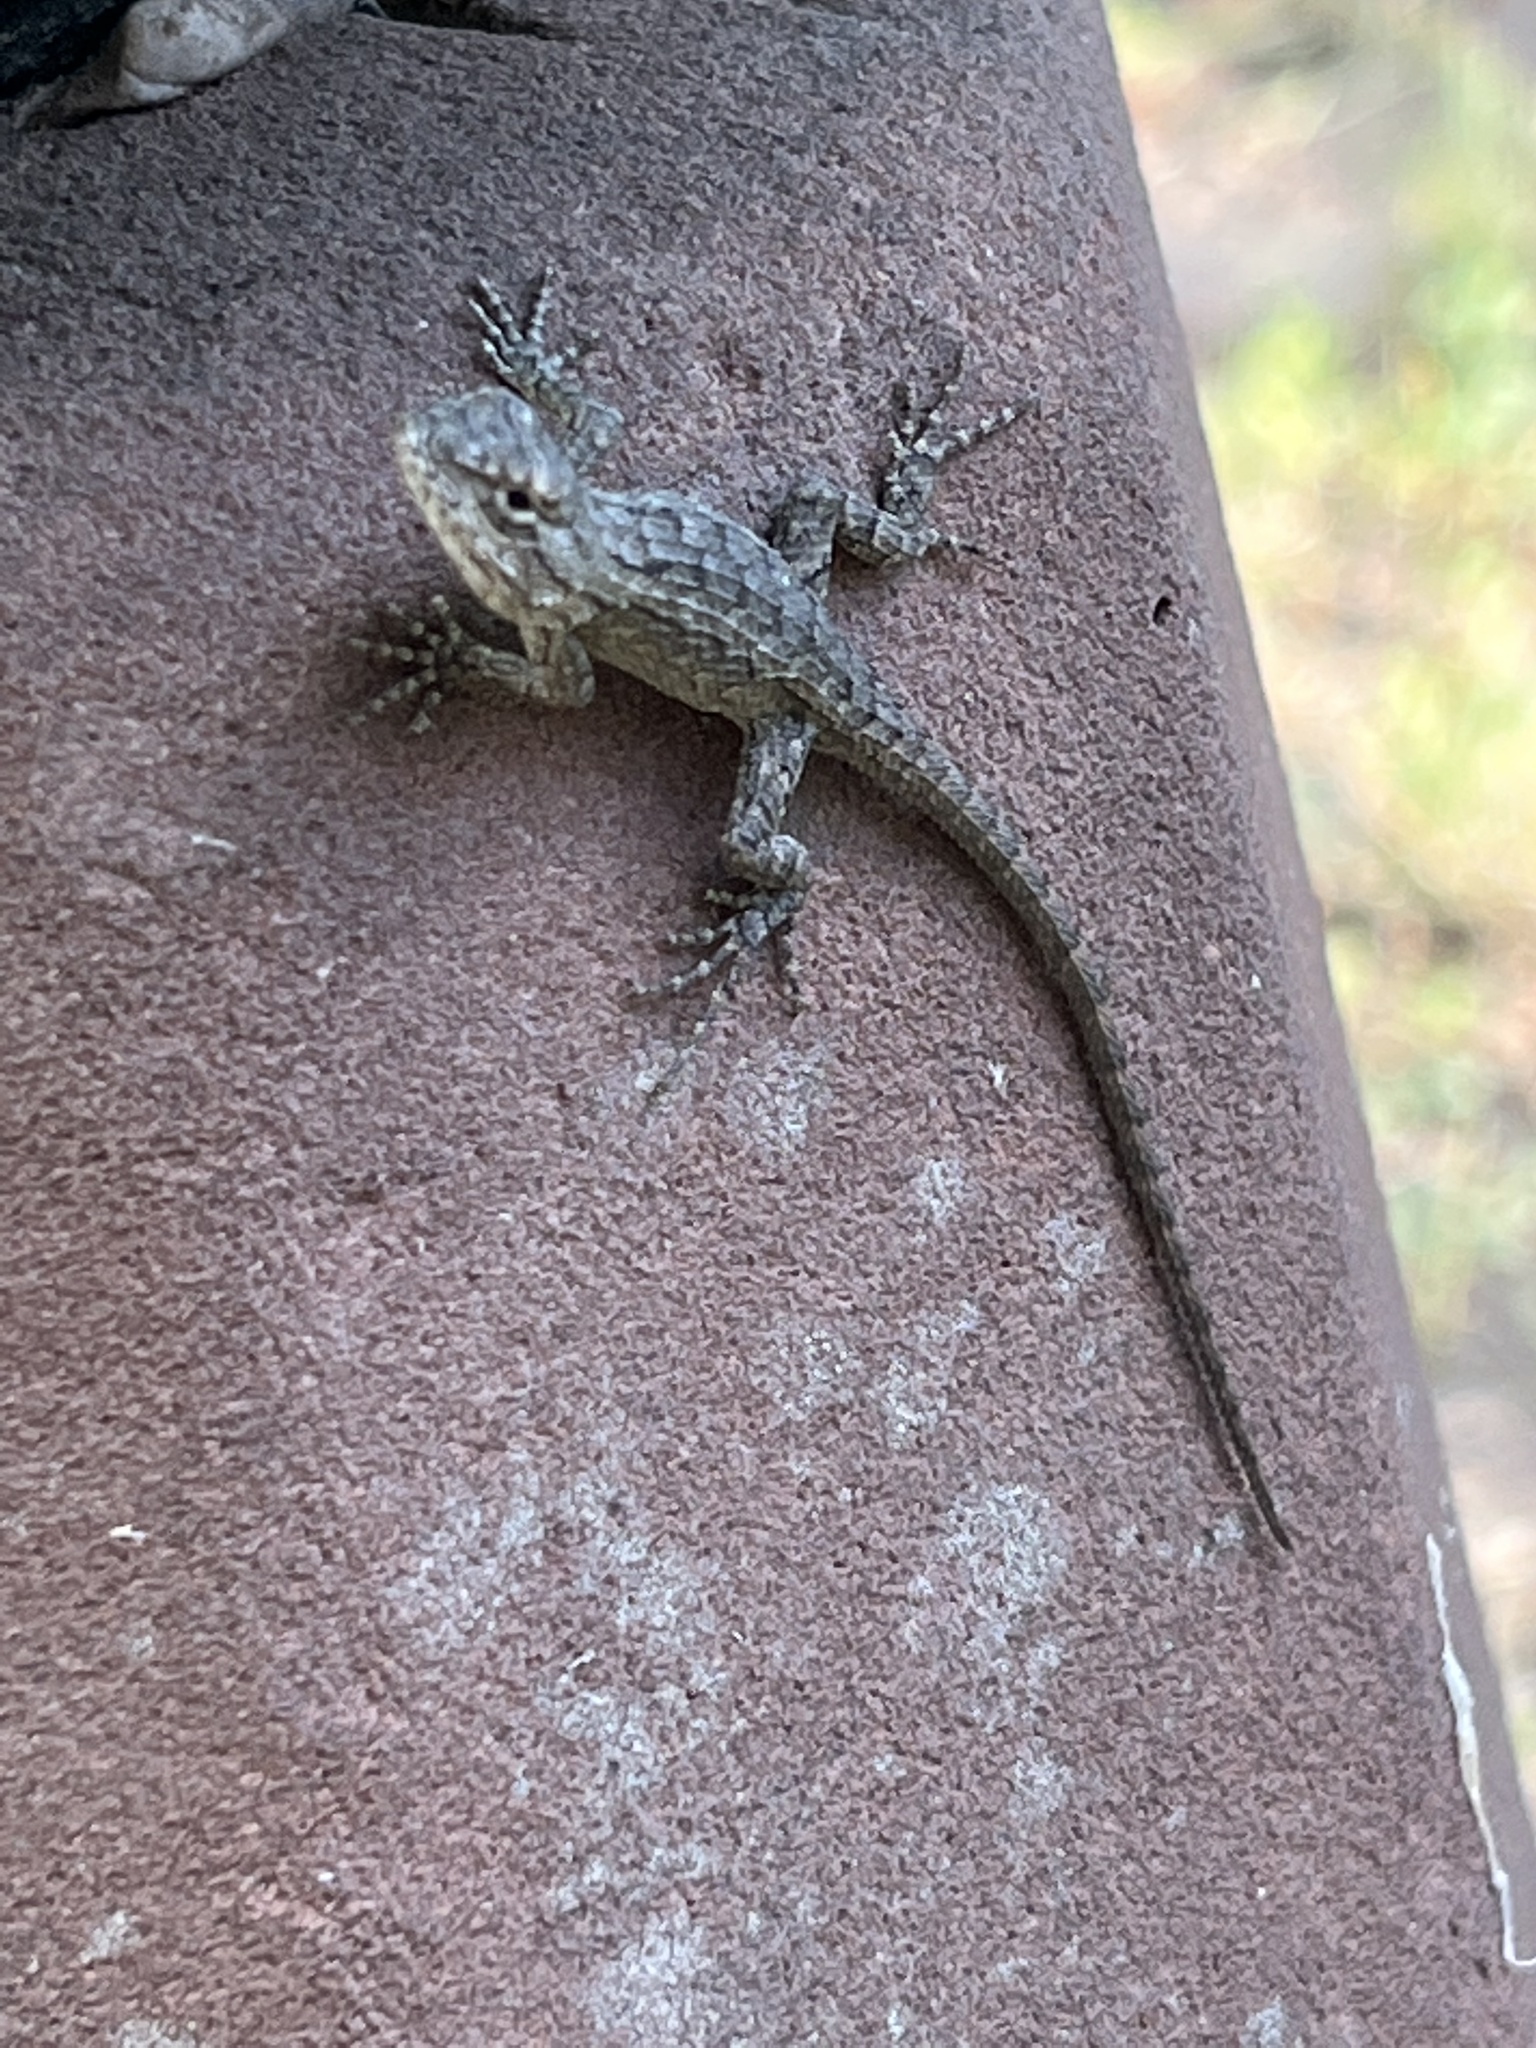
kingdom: Animalia
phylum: Chordata
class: Squamata
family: Phrynosomatidae
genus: Sceloporus
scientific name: Sceloporus olivaceus
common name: Texas spiny lizard
